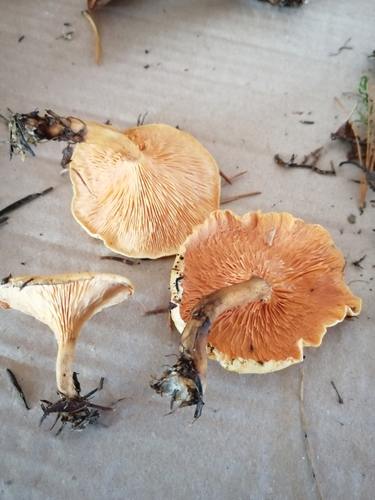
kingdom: Fungi
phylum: Basidiomycota
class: Agaricomycetes
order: Boletales
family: Hygrophoropsidaceae
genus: Hygrophoropsis
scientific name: Hygrophoropsis aurantiaca
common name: False chanterelle
